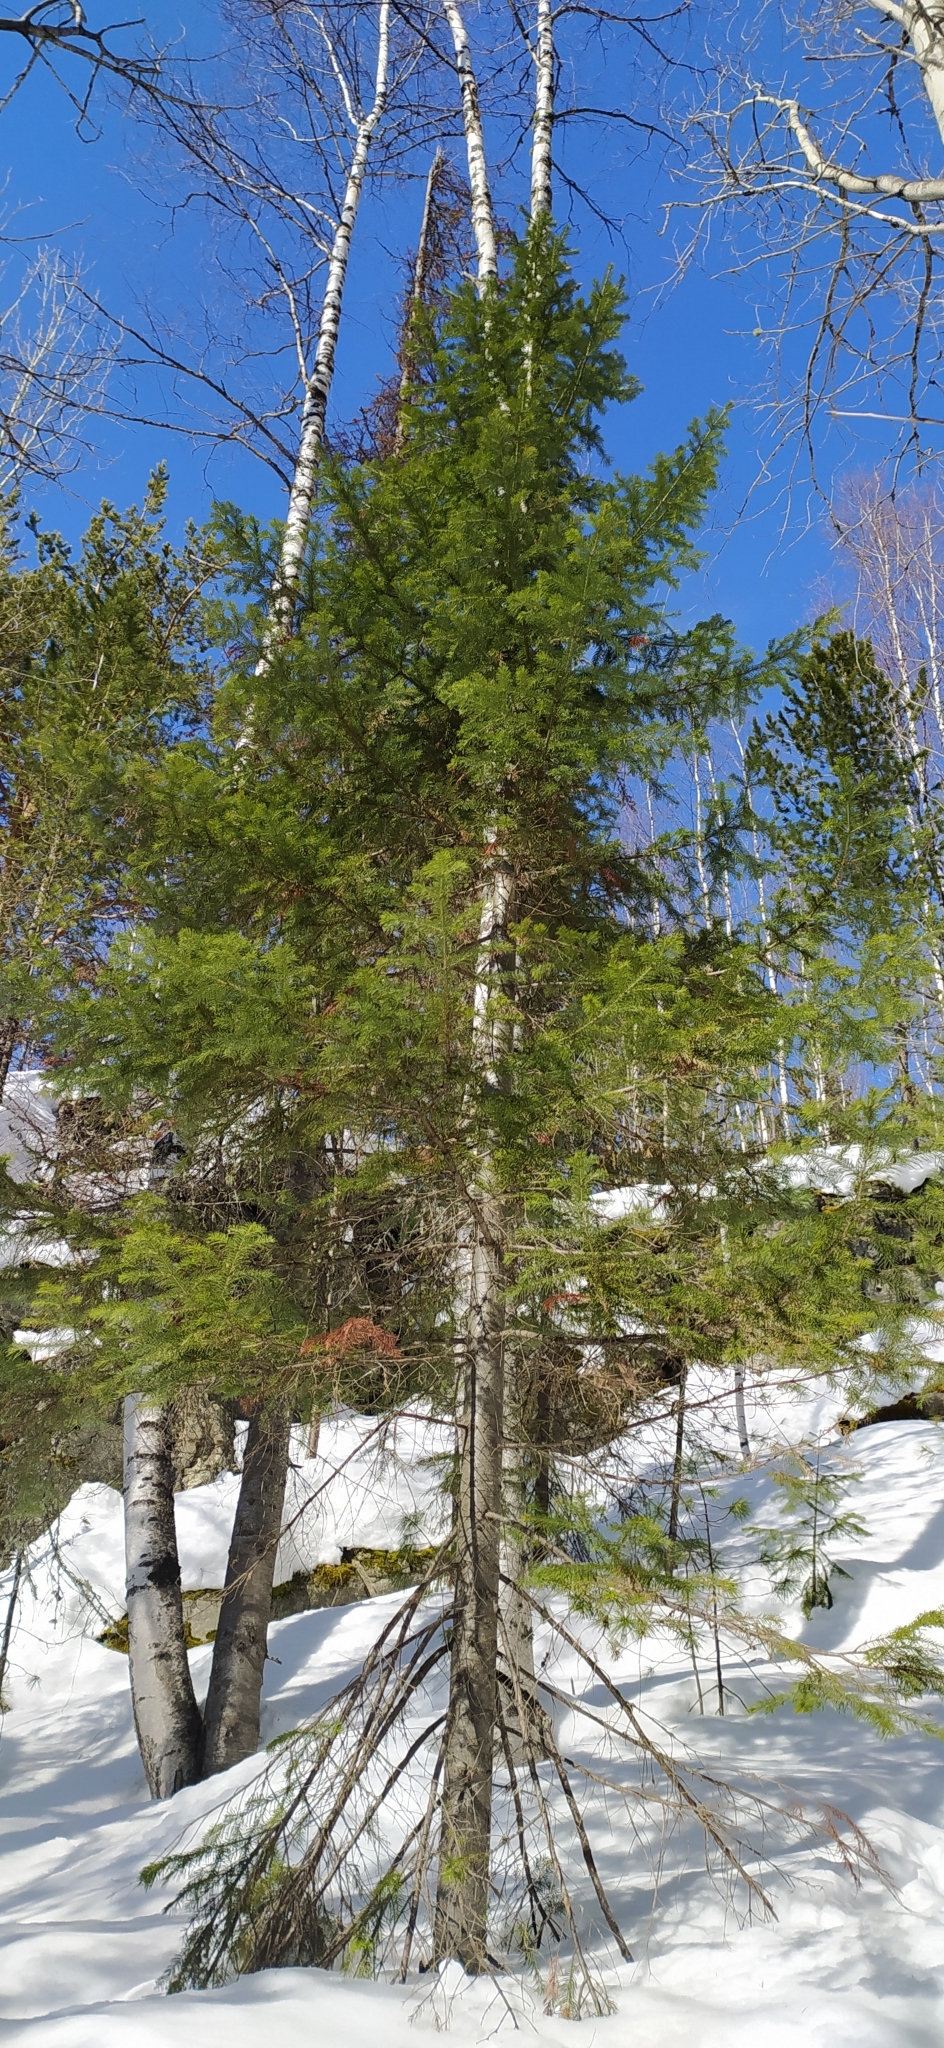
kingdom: Plantae
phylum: Tracheophyta
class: Pinopsida
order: Pinales
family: Pinaceae
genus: Abies
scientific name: Abies sibirica
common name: Siberian fir
